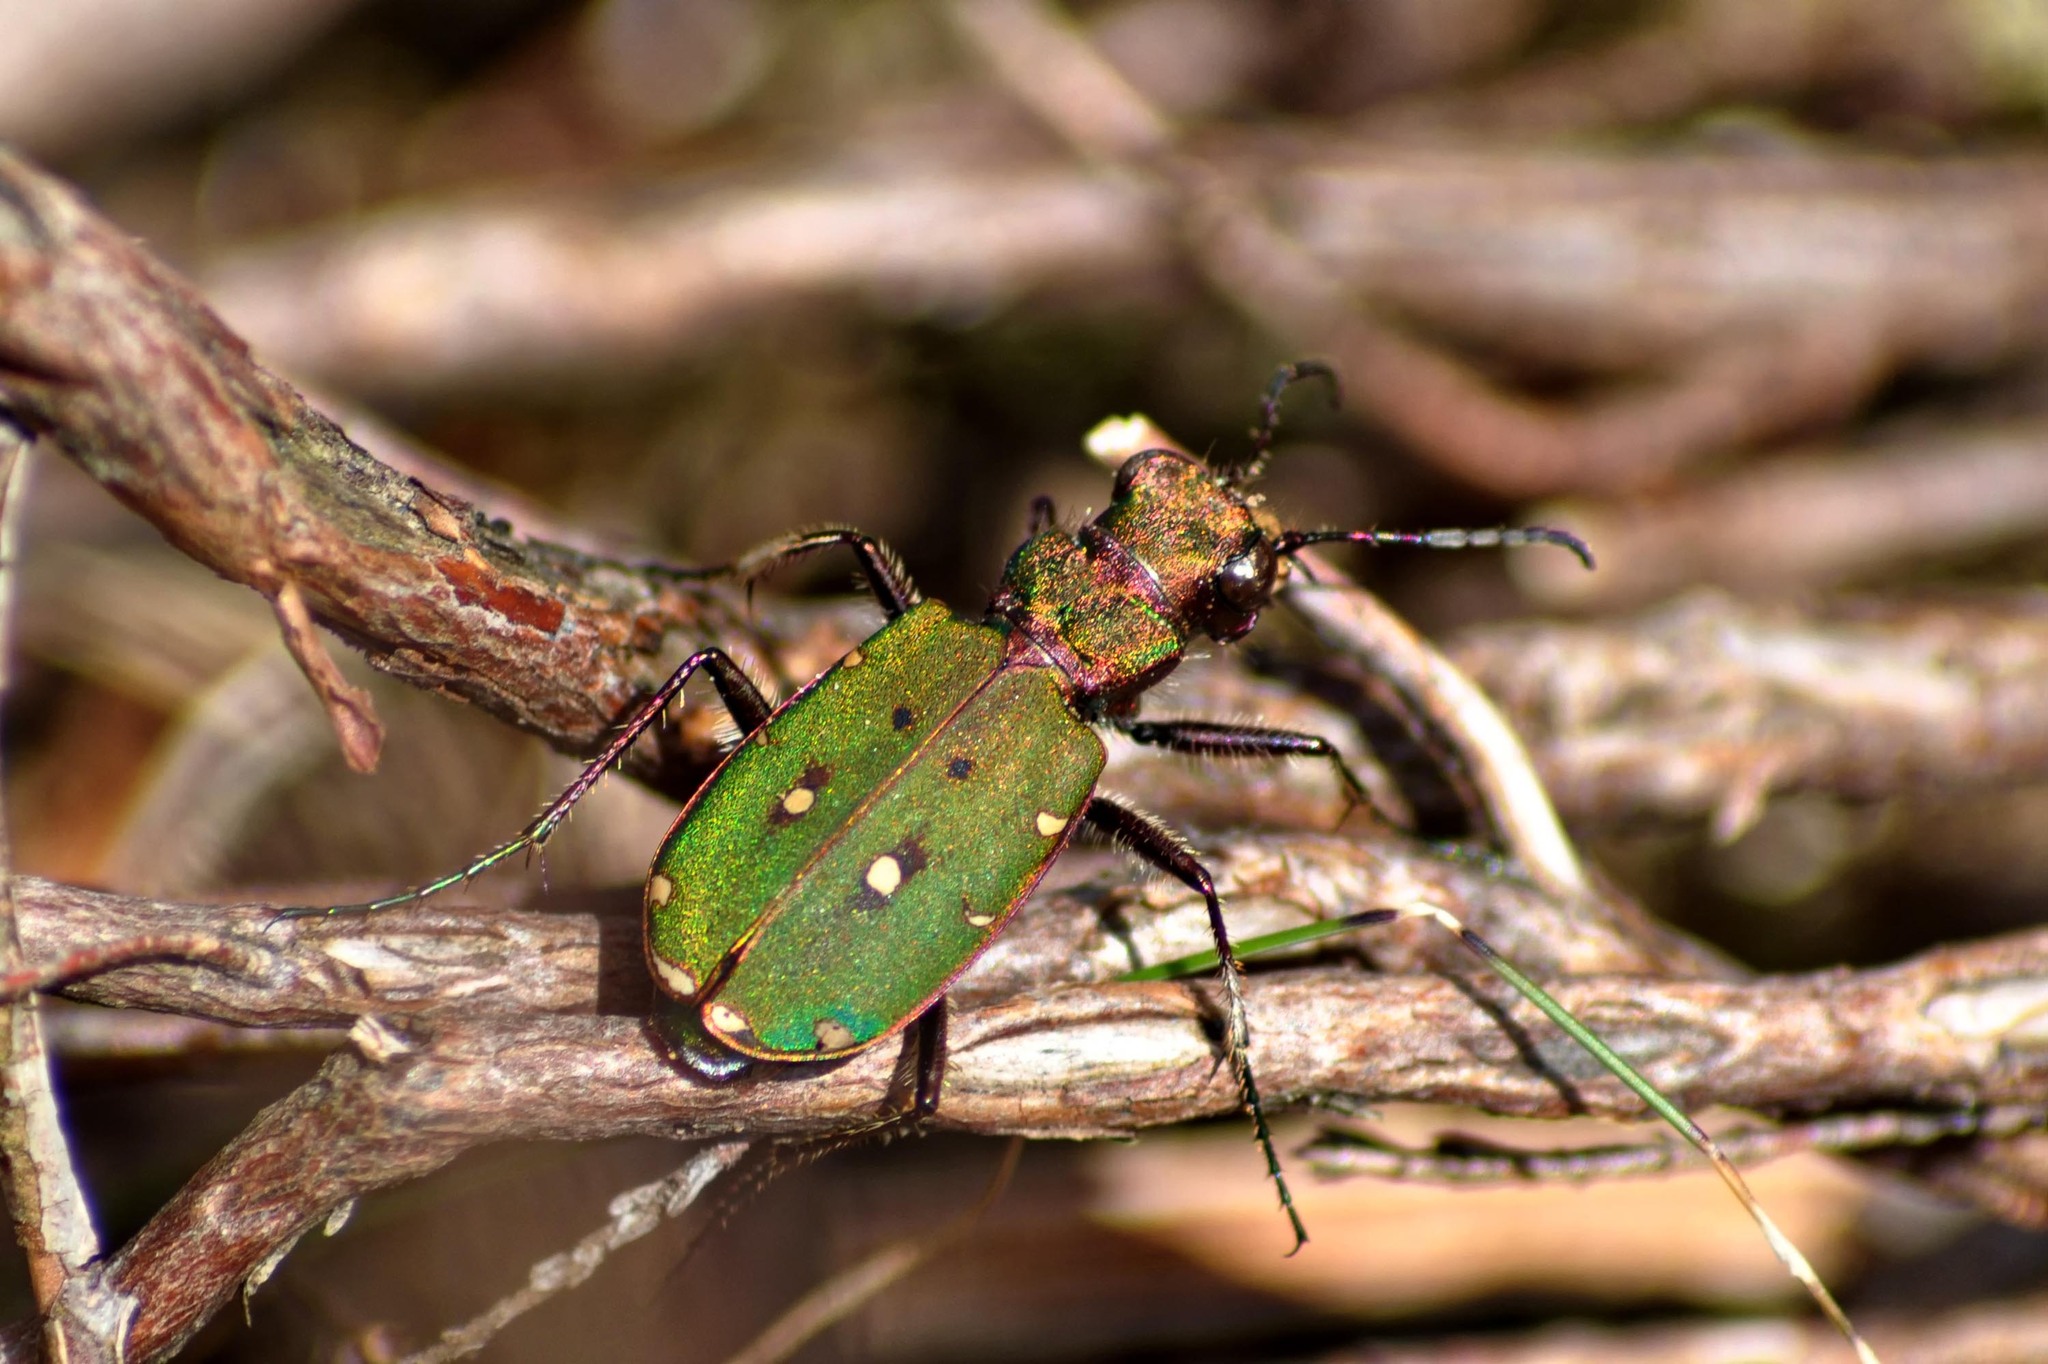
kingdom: Animalia
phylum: Arthropoda
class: Insecta
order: Coleoptera
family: Carabidae
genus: Cicindela
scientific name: Cicindela campestris
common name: Common tiger beetle
